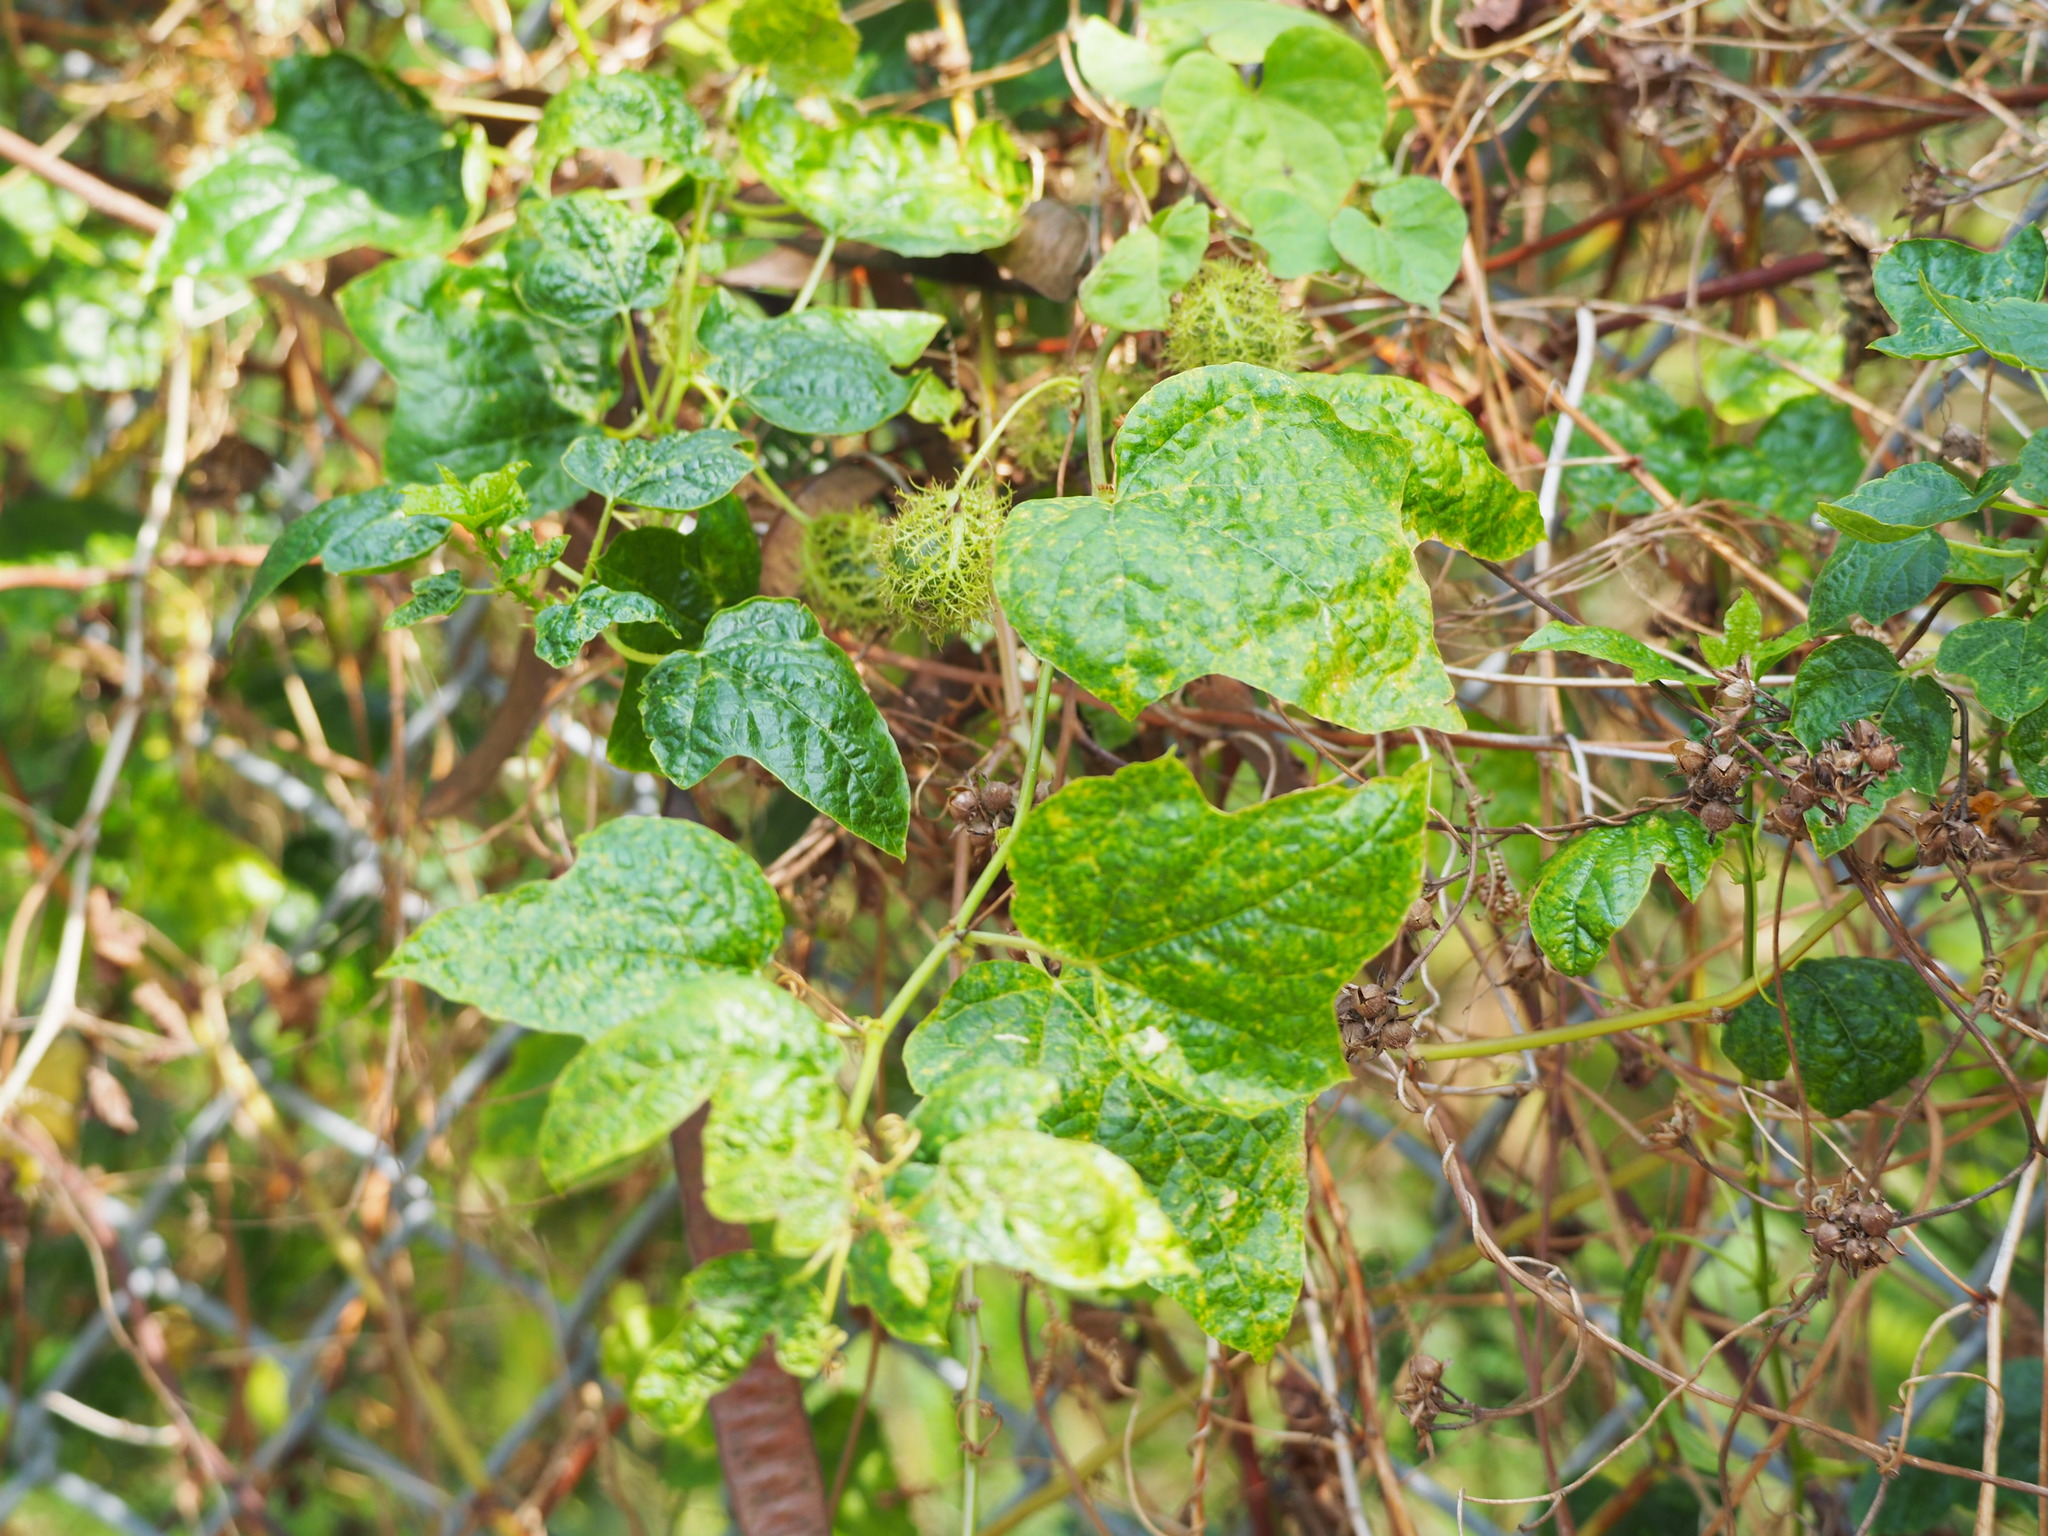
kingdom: Plantae
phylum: Tracheophyta
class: Magnoliopsida
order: Malpighiales
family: Passifloraceae
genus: Passiflora
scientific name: Passiflora vesicaria
